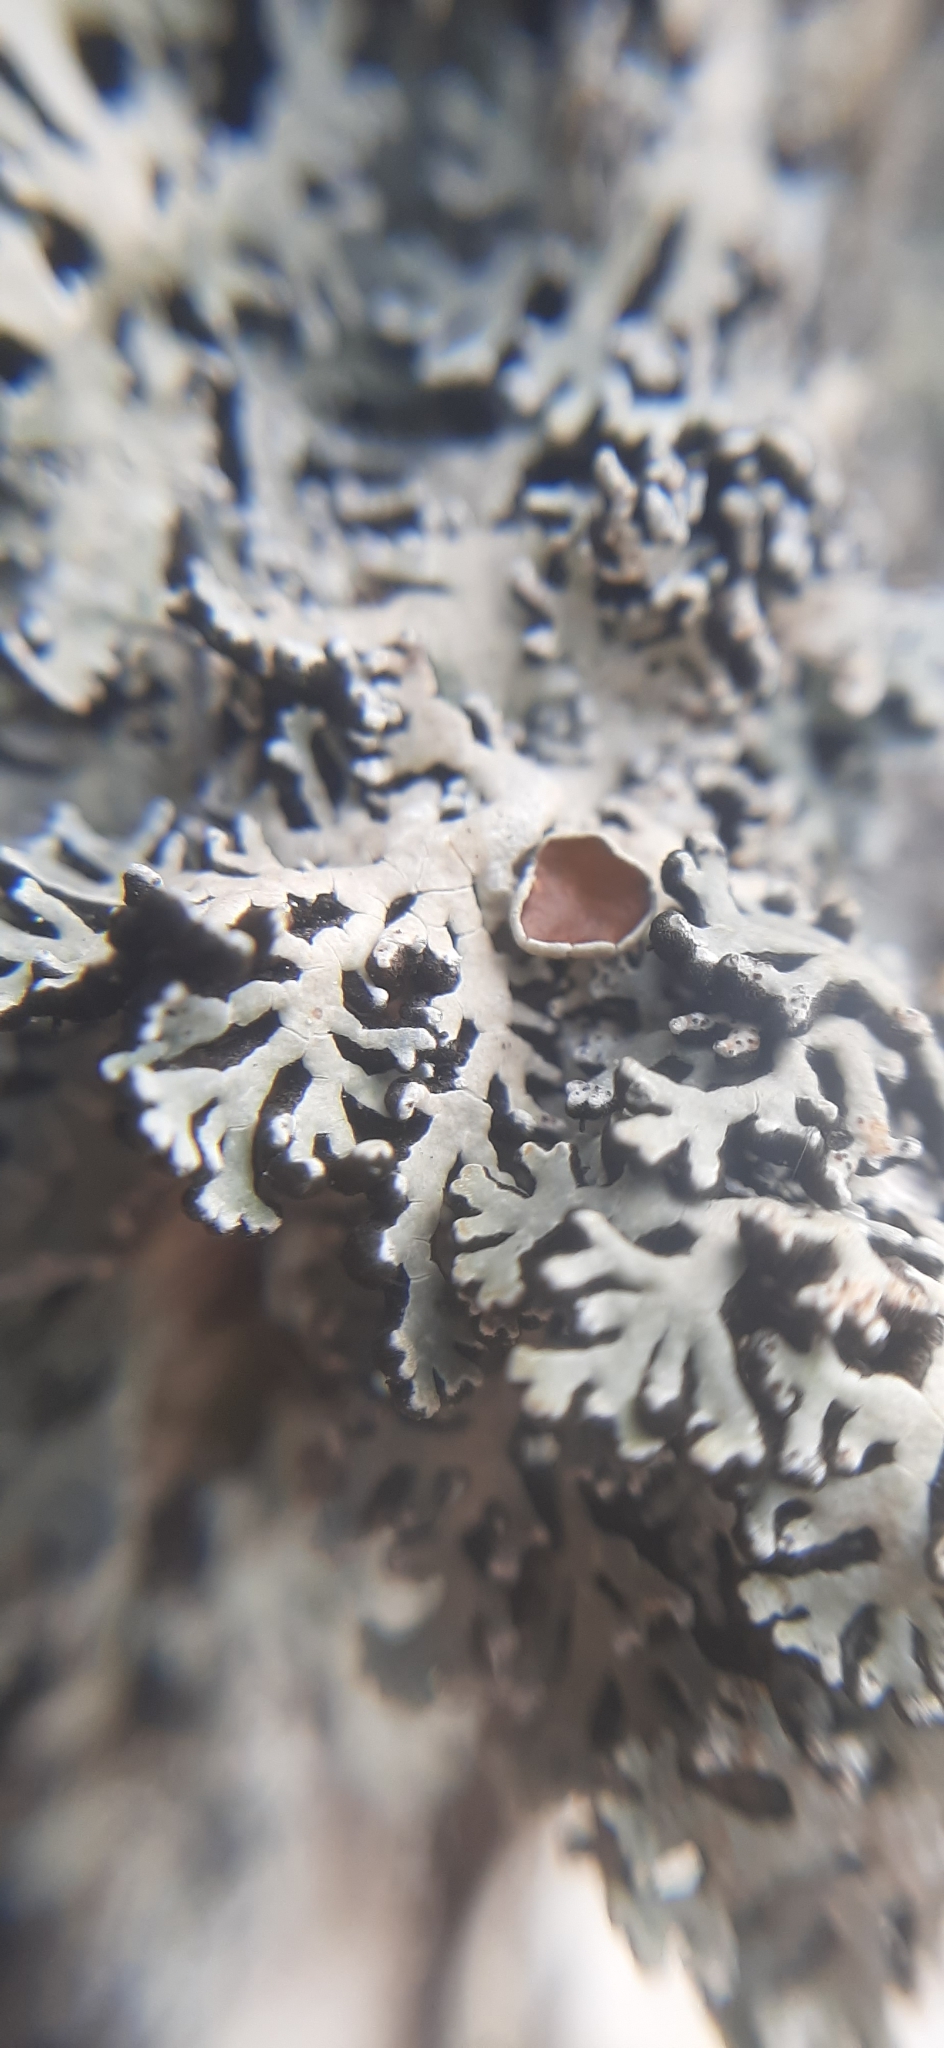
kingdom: Fungi
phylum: Ascomycota
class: Lecanoromycetes
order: Lecanorales
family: Parmeliaceae
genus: Anzia
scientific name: Anzia colpodes
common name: Black-foam lichen
